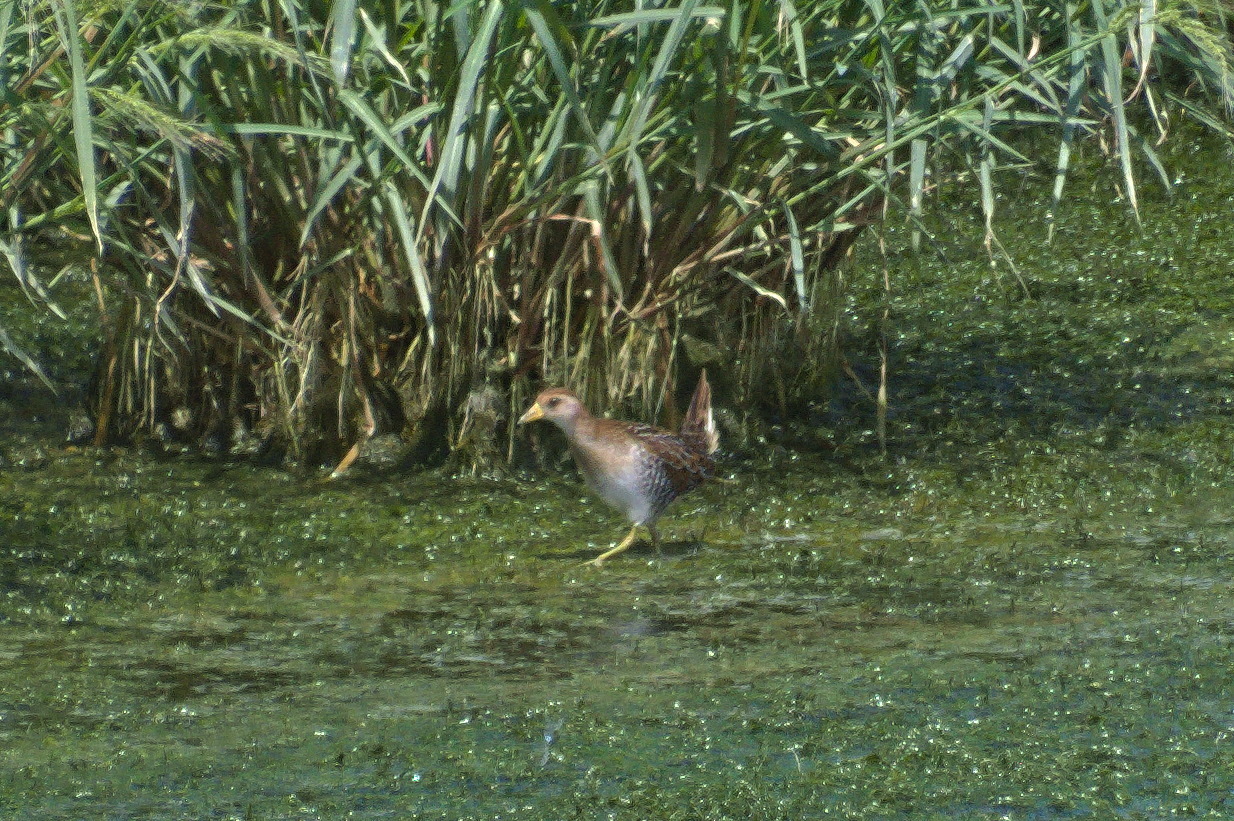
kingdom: Animalia
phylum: Chordata
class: Aves
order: Gruiformes
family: Rallidae
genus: Porzana
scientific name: Porzana carolina
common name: Sora
